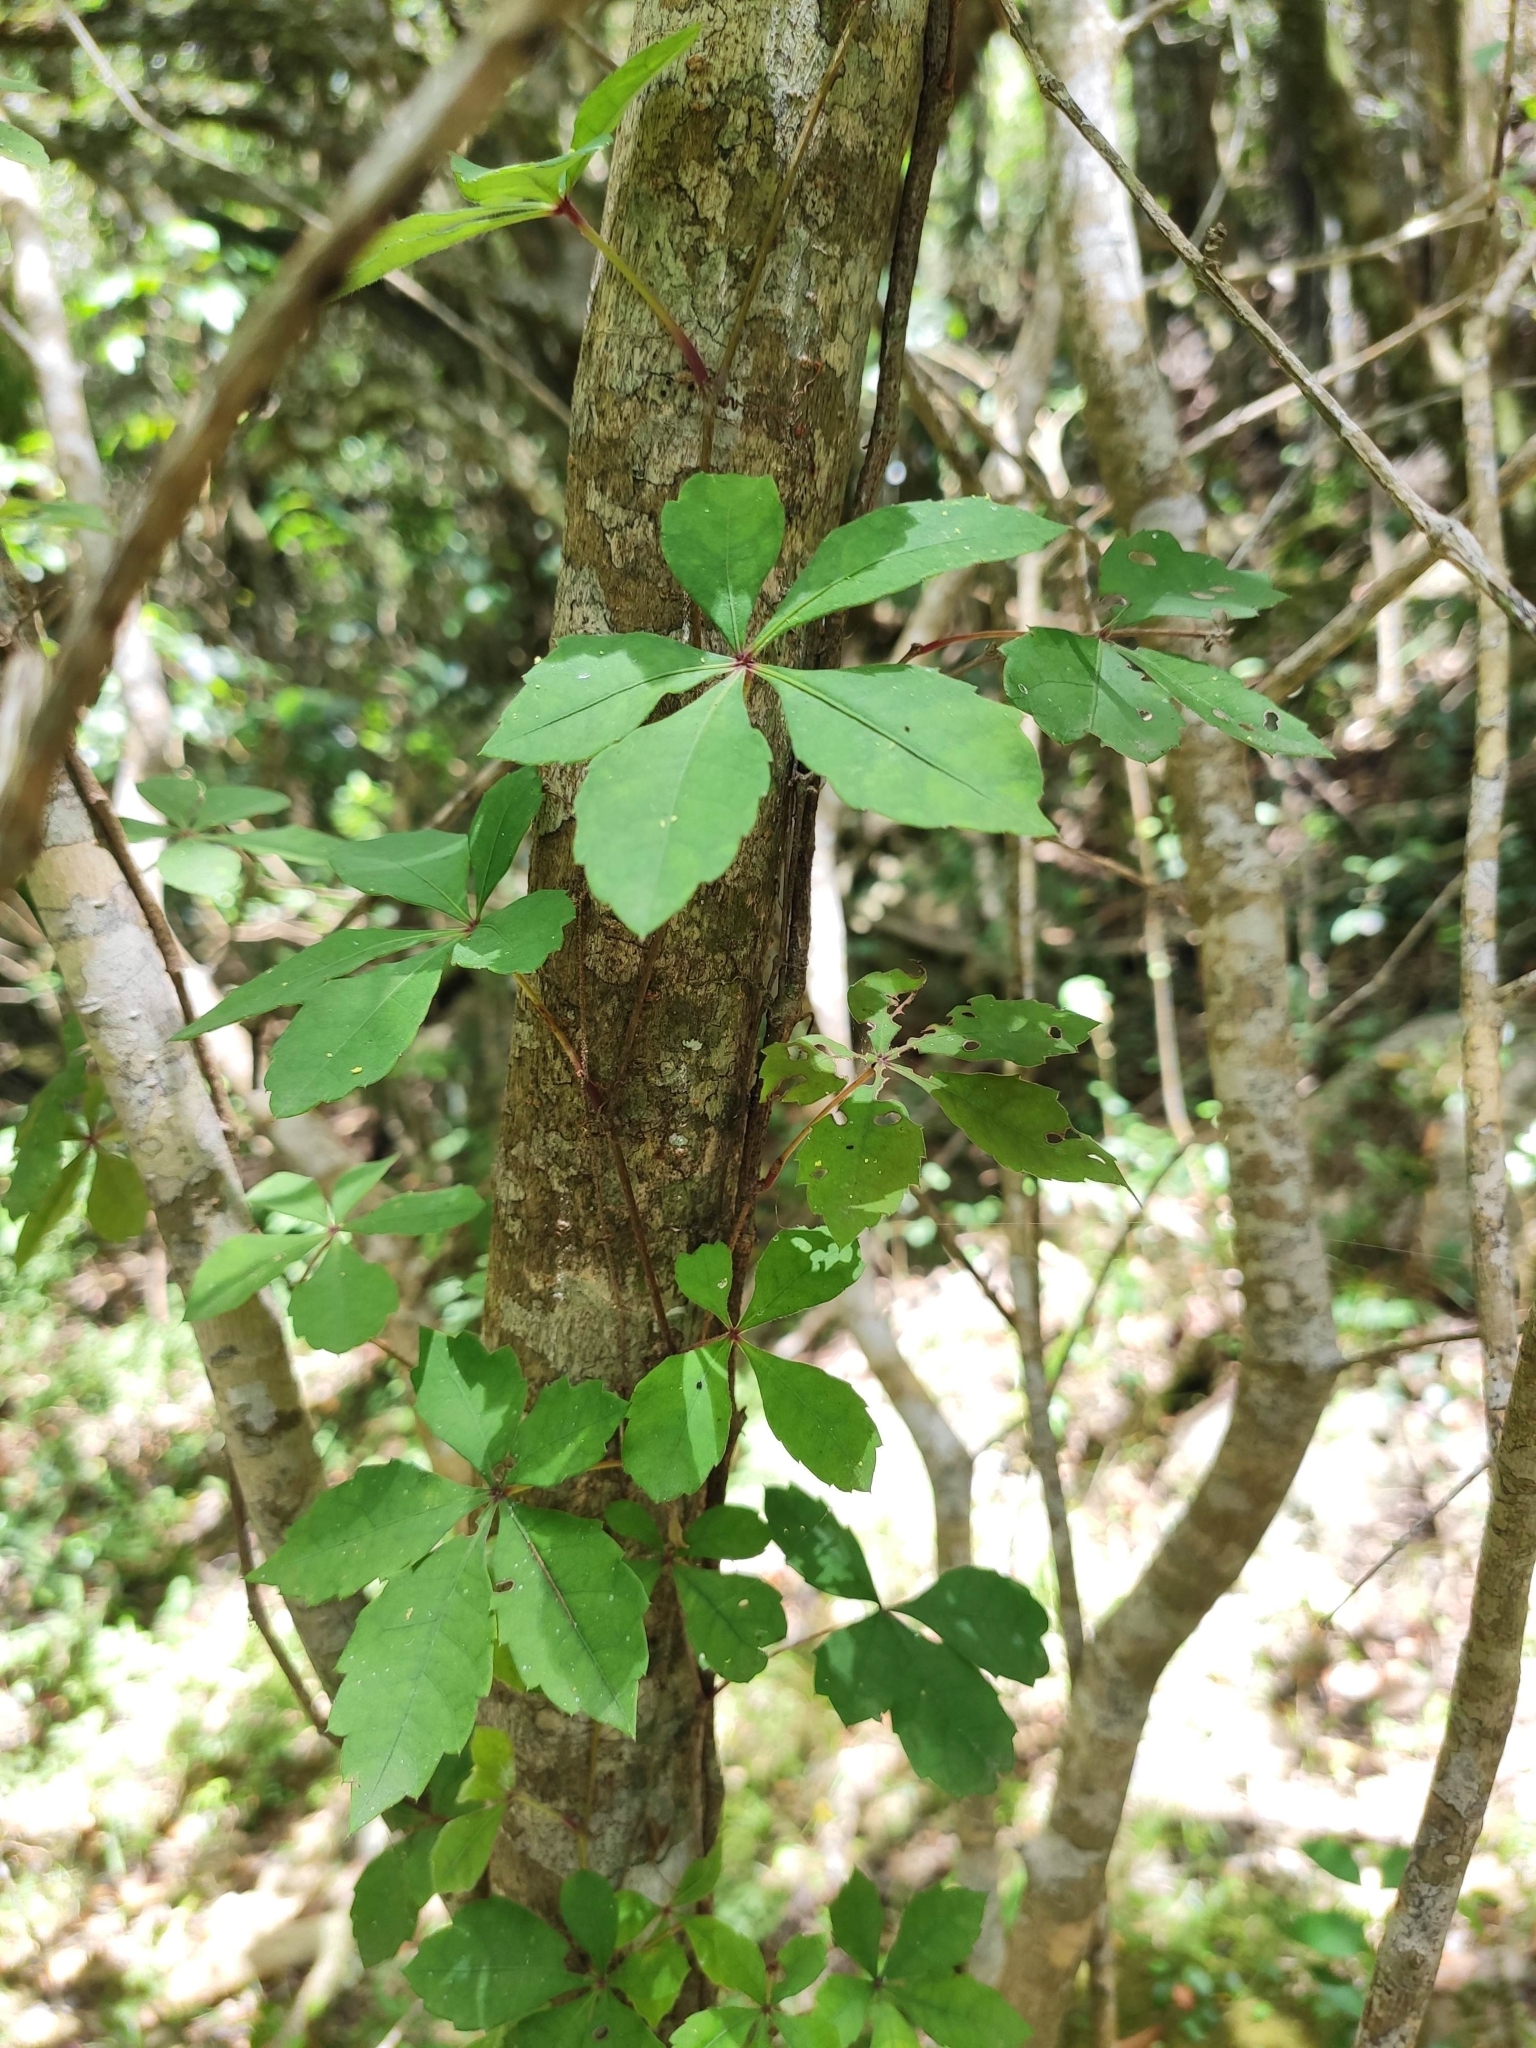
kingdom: Plantae
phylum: Tracheophyta
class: Magnoliopsida
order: Vitales
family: Vitaceae
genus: Clematicissus
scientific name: Clematicissus striata
